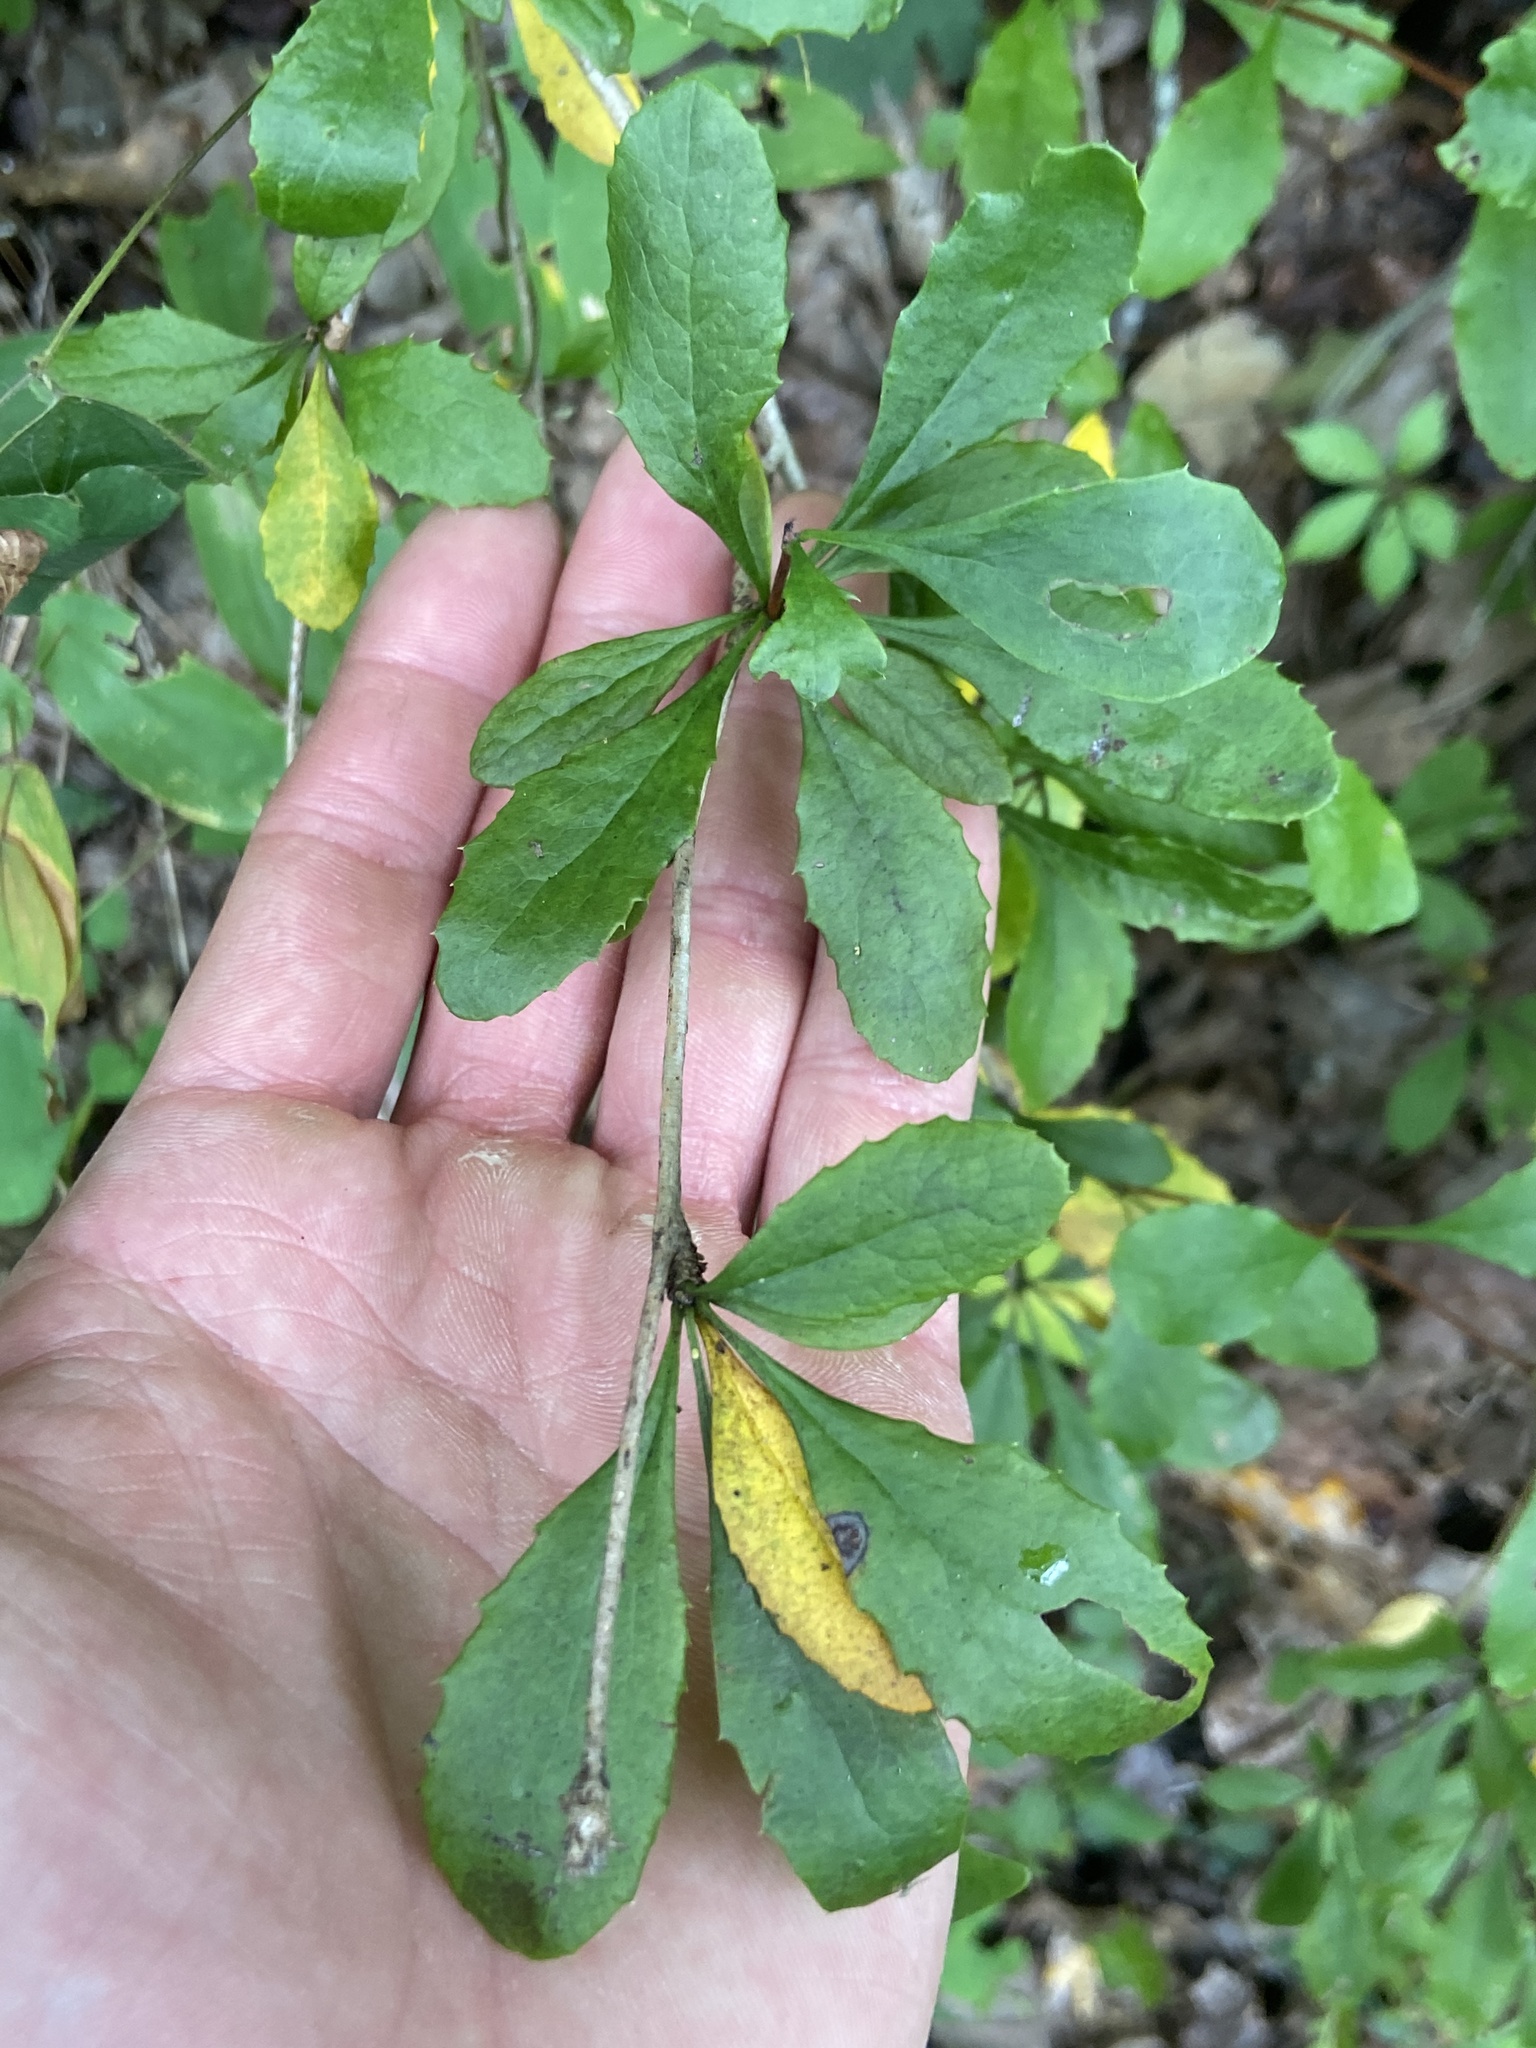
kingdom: Plantae
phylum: Tracheophyta
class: Magnoliopsida
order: Ranunculales
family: Berberidaceae
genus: Berberis
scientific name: Berberis canadensis
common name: American barberry
